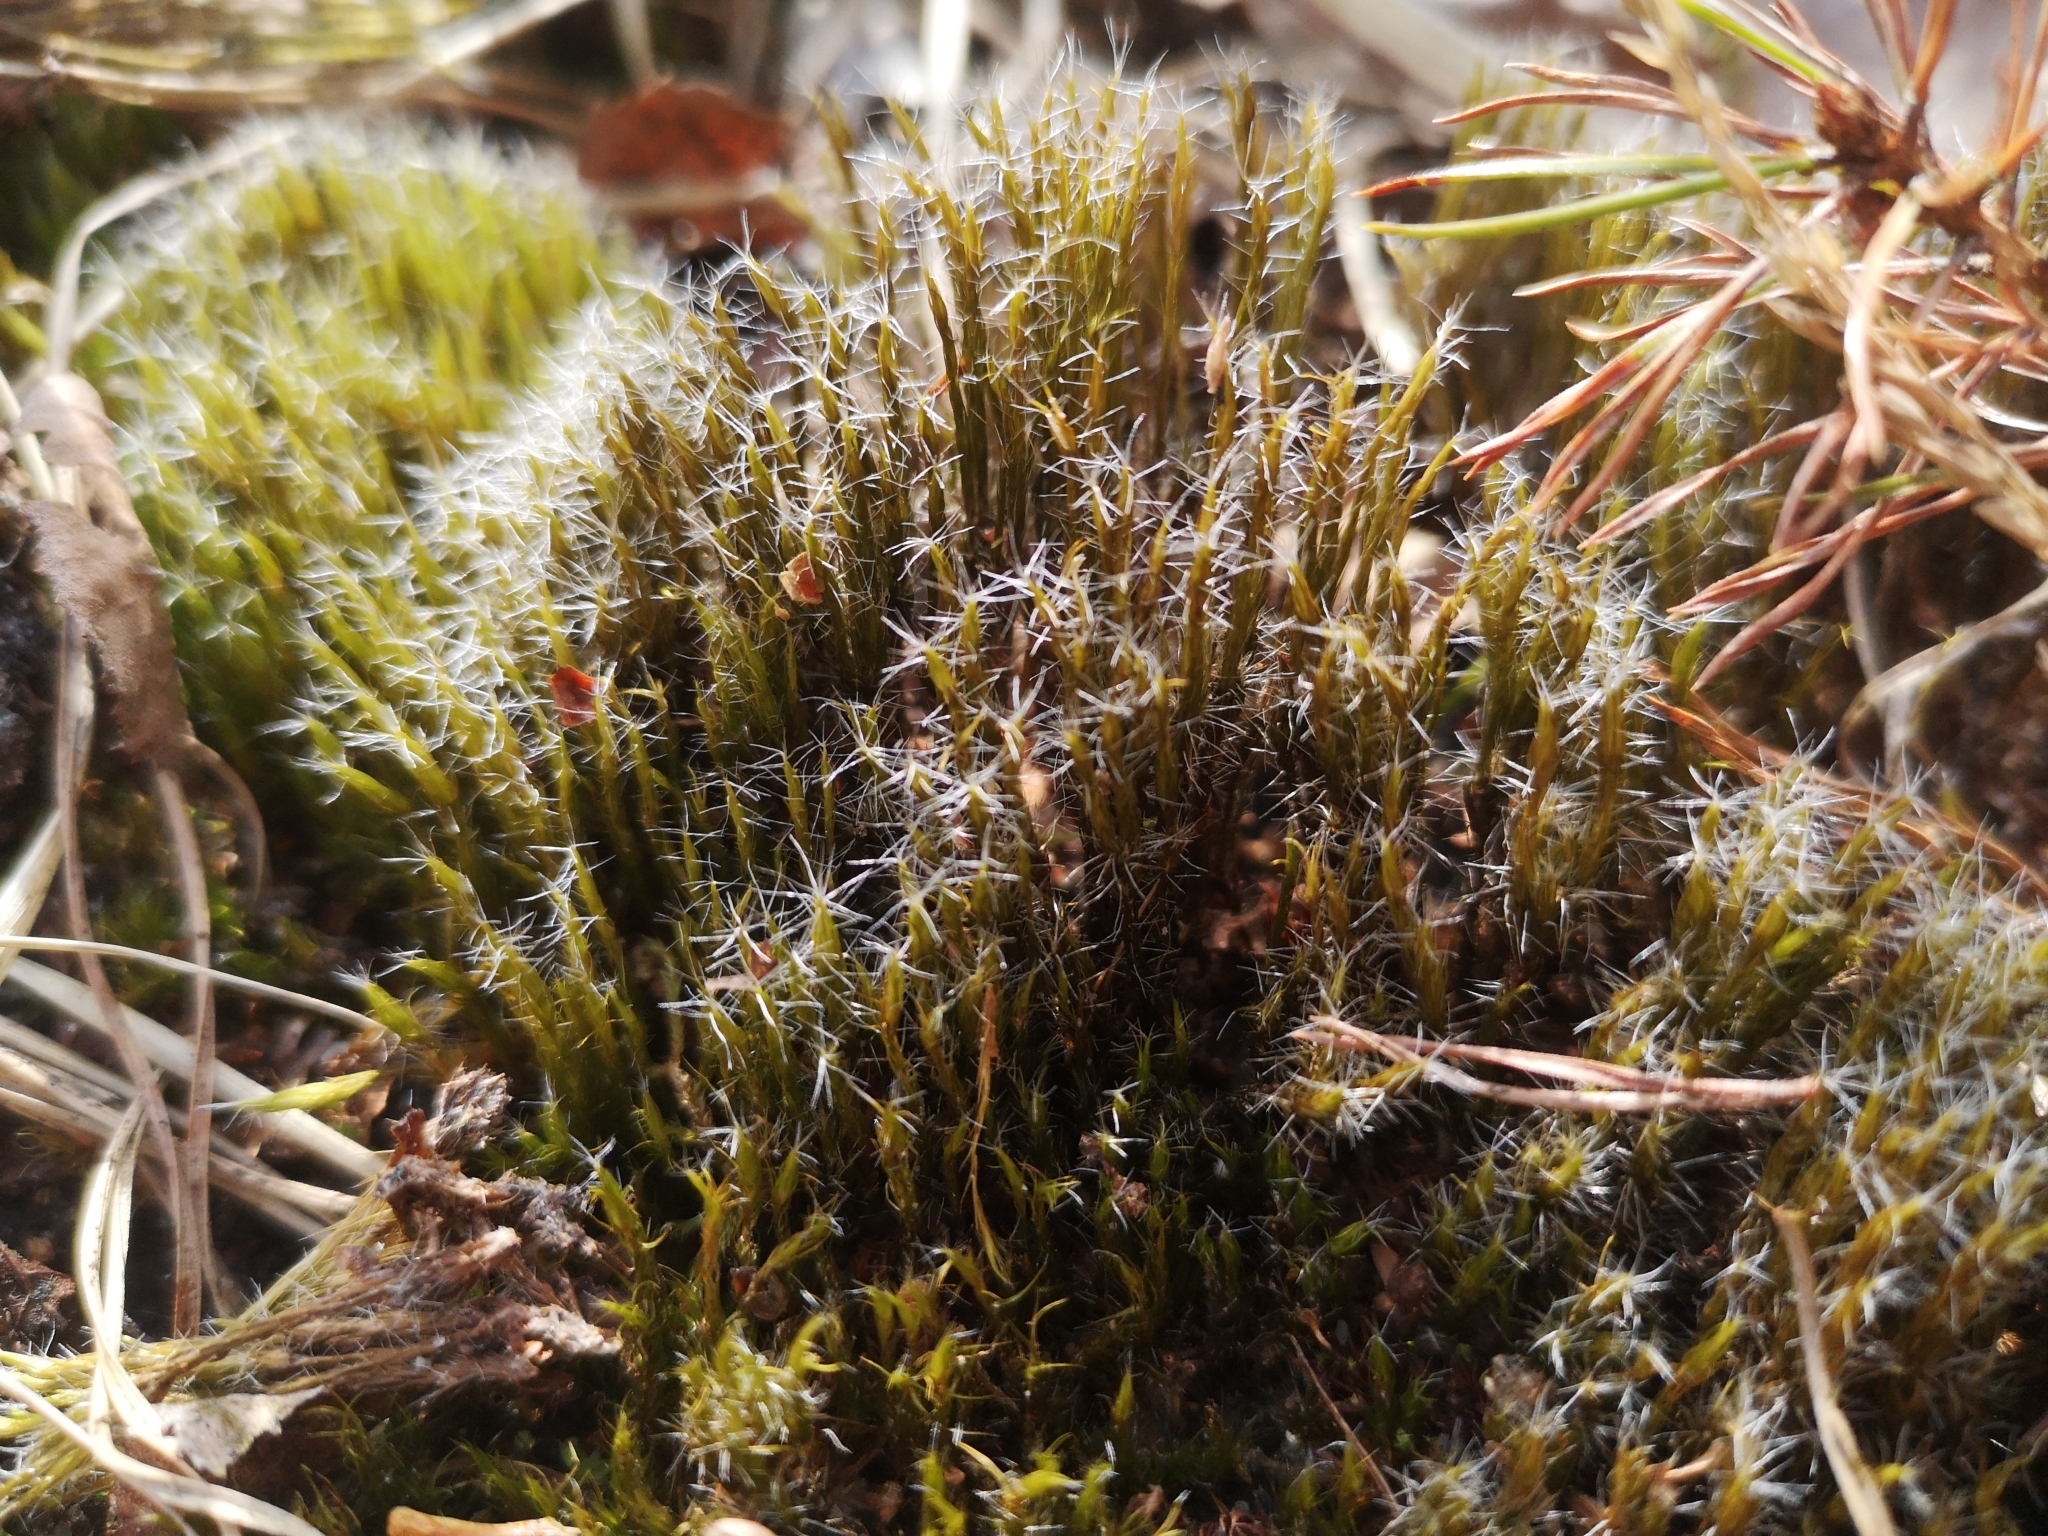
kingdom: Plantae
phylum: Bryophyta
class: Bryopsida
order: Dicranales
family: Leucobryaceae
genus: Campylopus
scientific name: Campylopus introflexus
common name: Heath star moss
